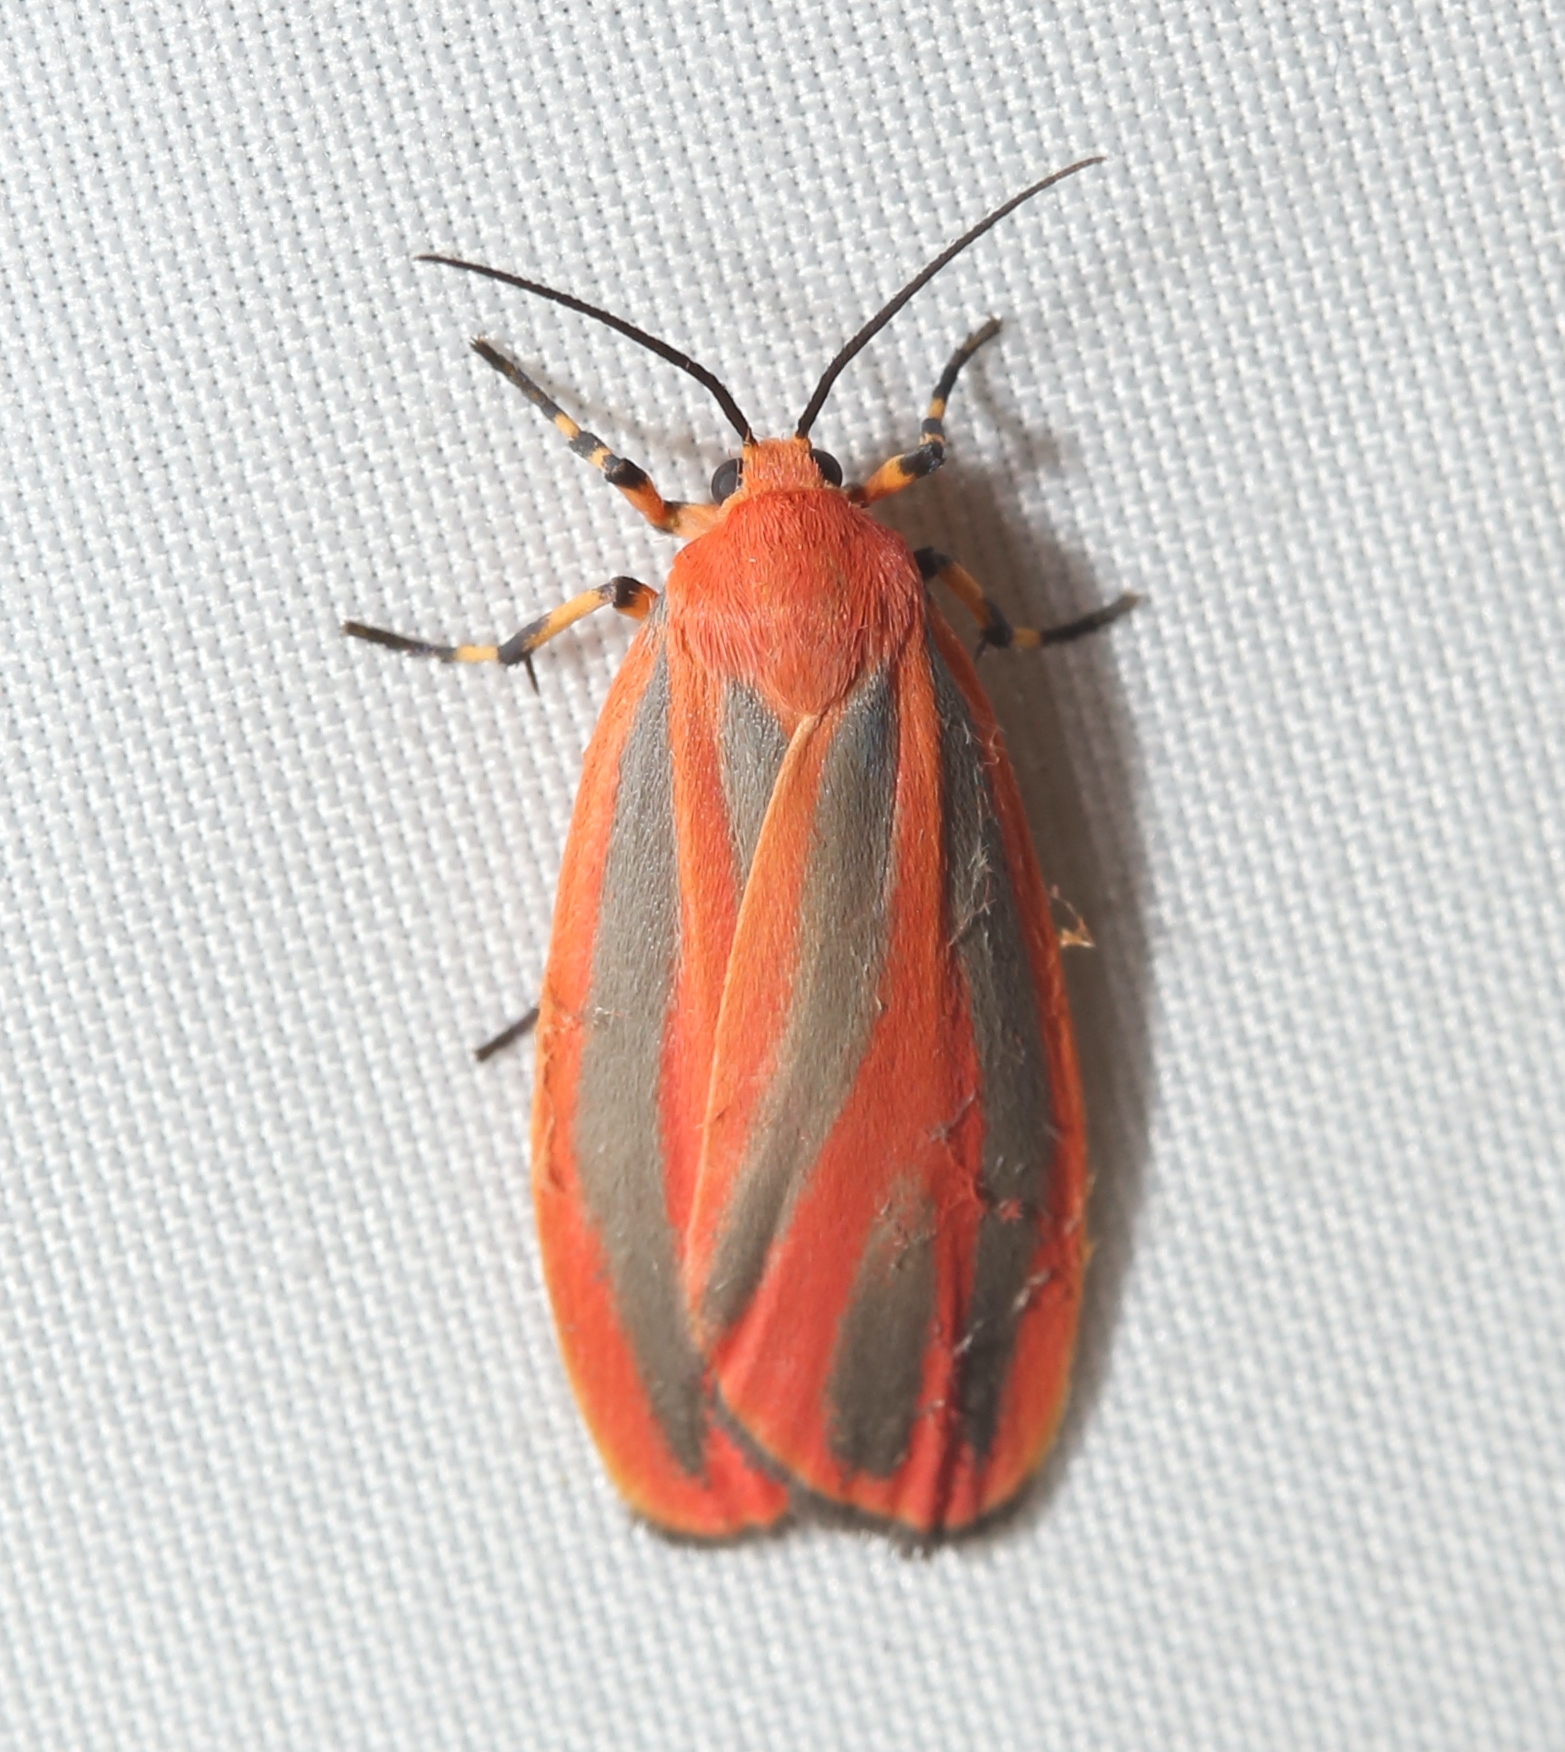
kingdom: Animalia
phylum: Arthropoda
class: Insecta
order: Lepidoptera
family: Erebidae
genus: Hypoprepia
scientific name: Hypoprepia miniata
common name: Scarlet-winged lichen moth
